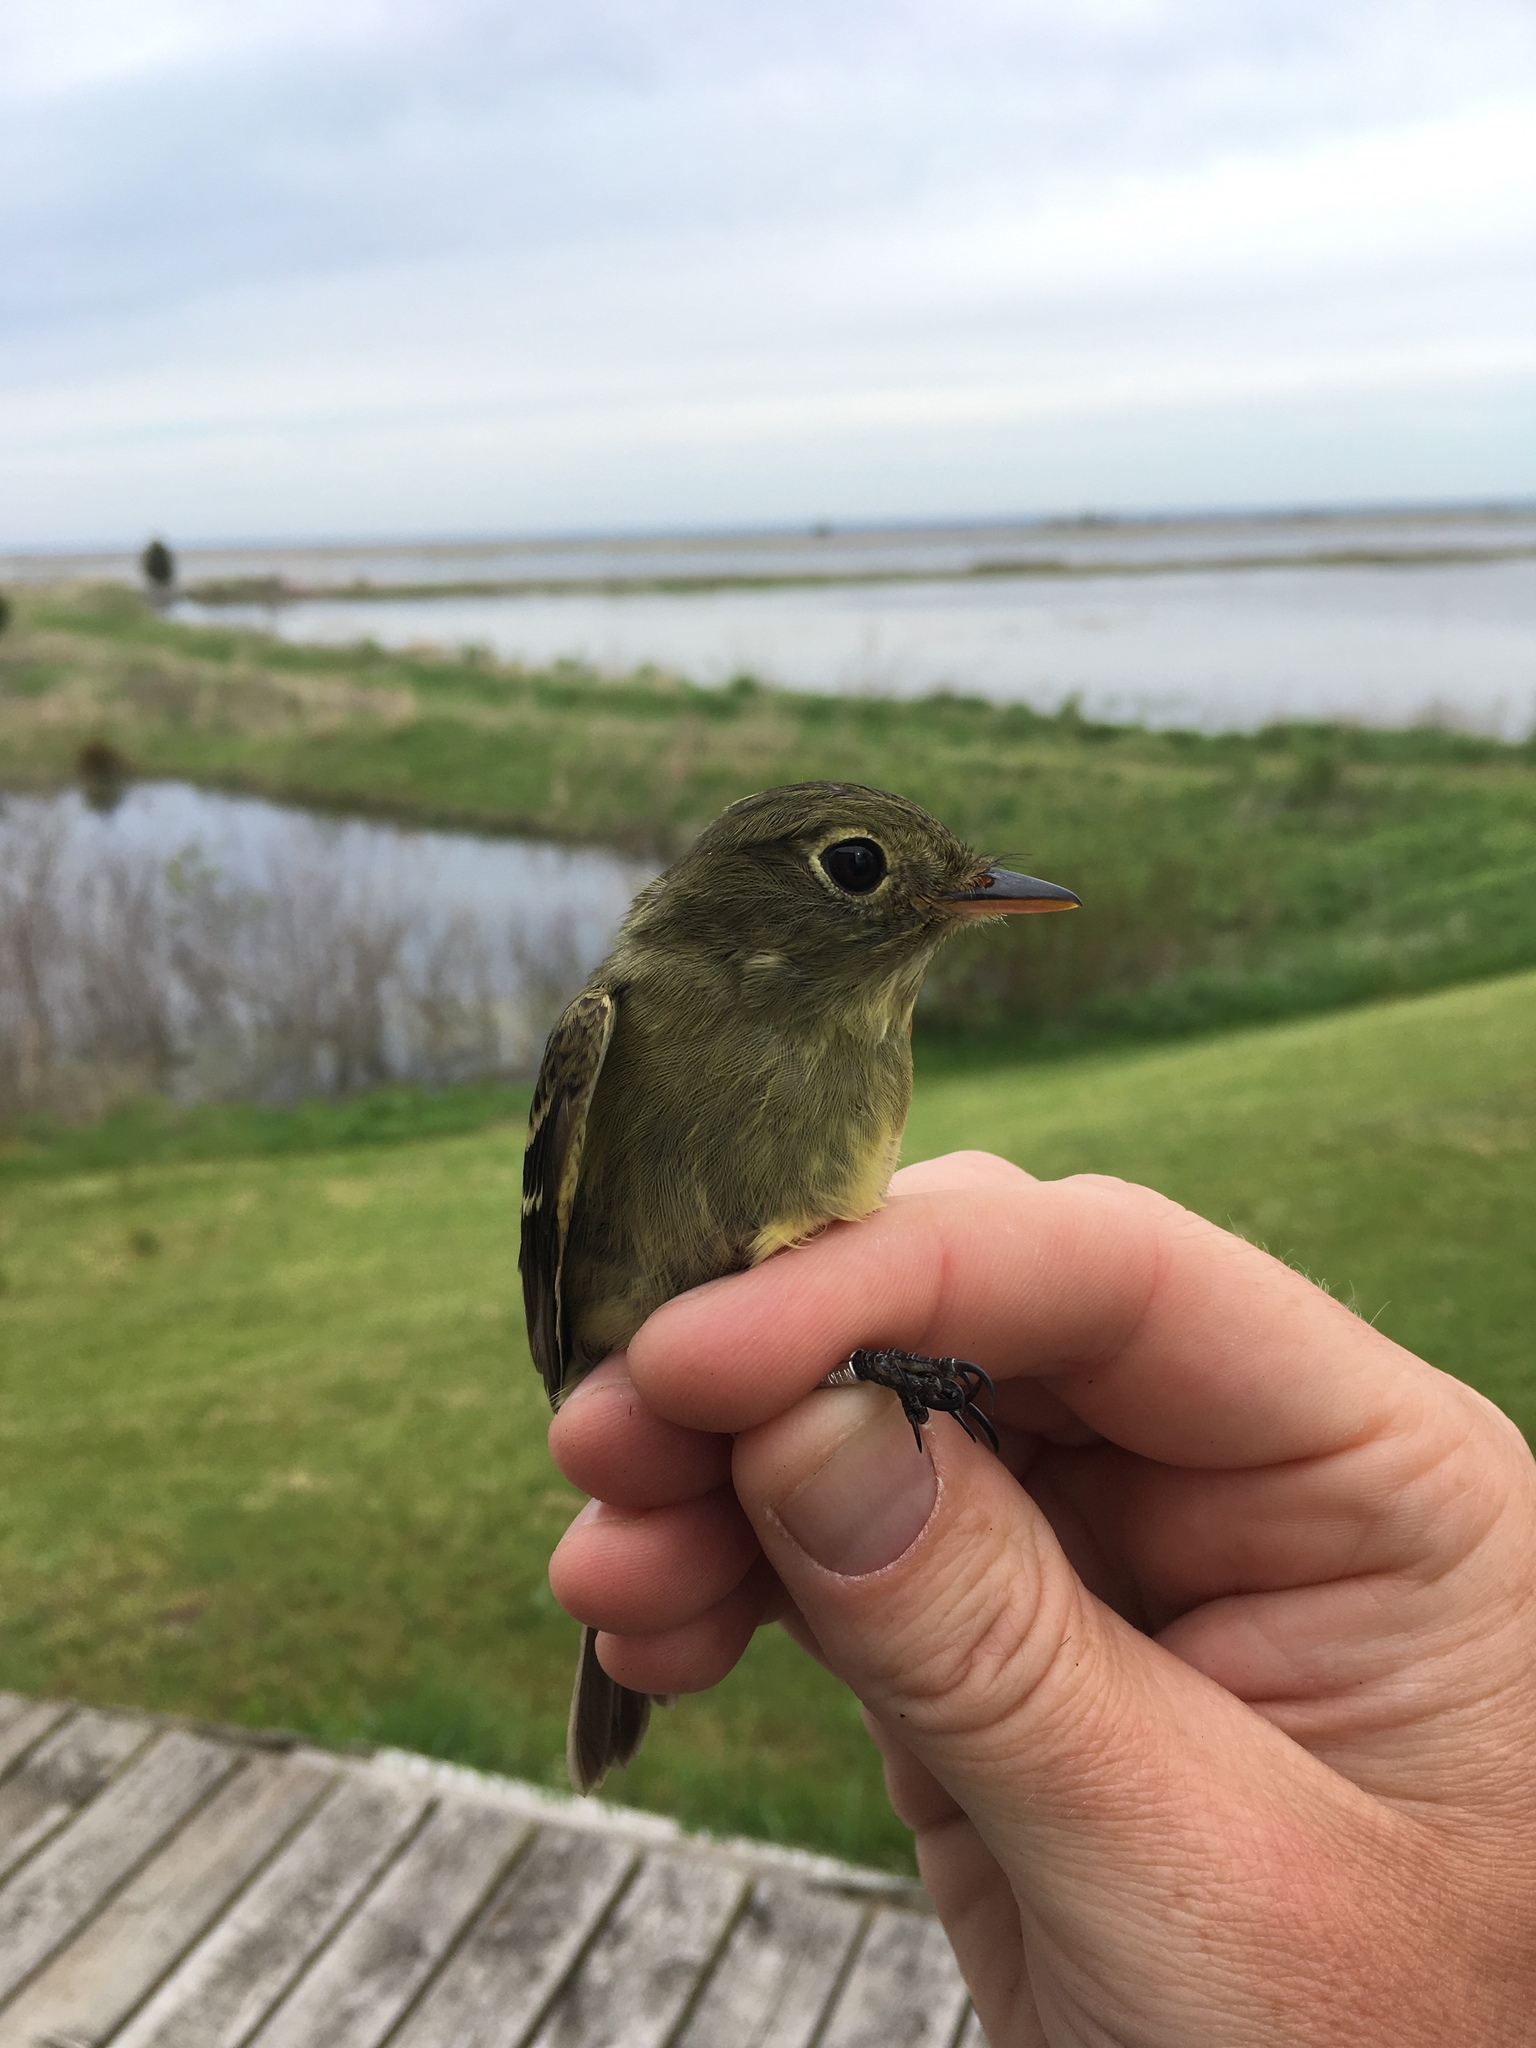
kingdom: Animalia
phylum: Chordata
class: Aves
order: Passeriformes
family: Tyrannidae
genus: Empidonax
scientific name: Empidonax flaviventris
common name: Yellow-bellied flycatcher
